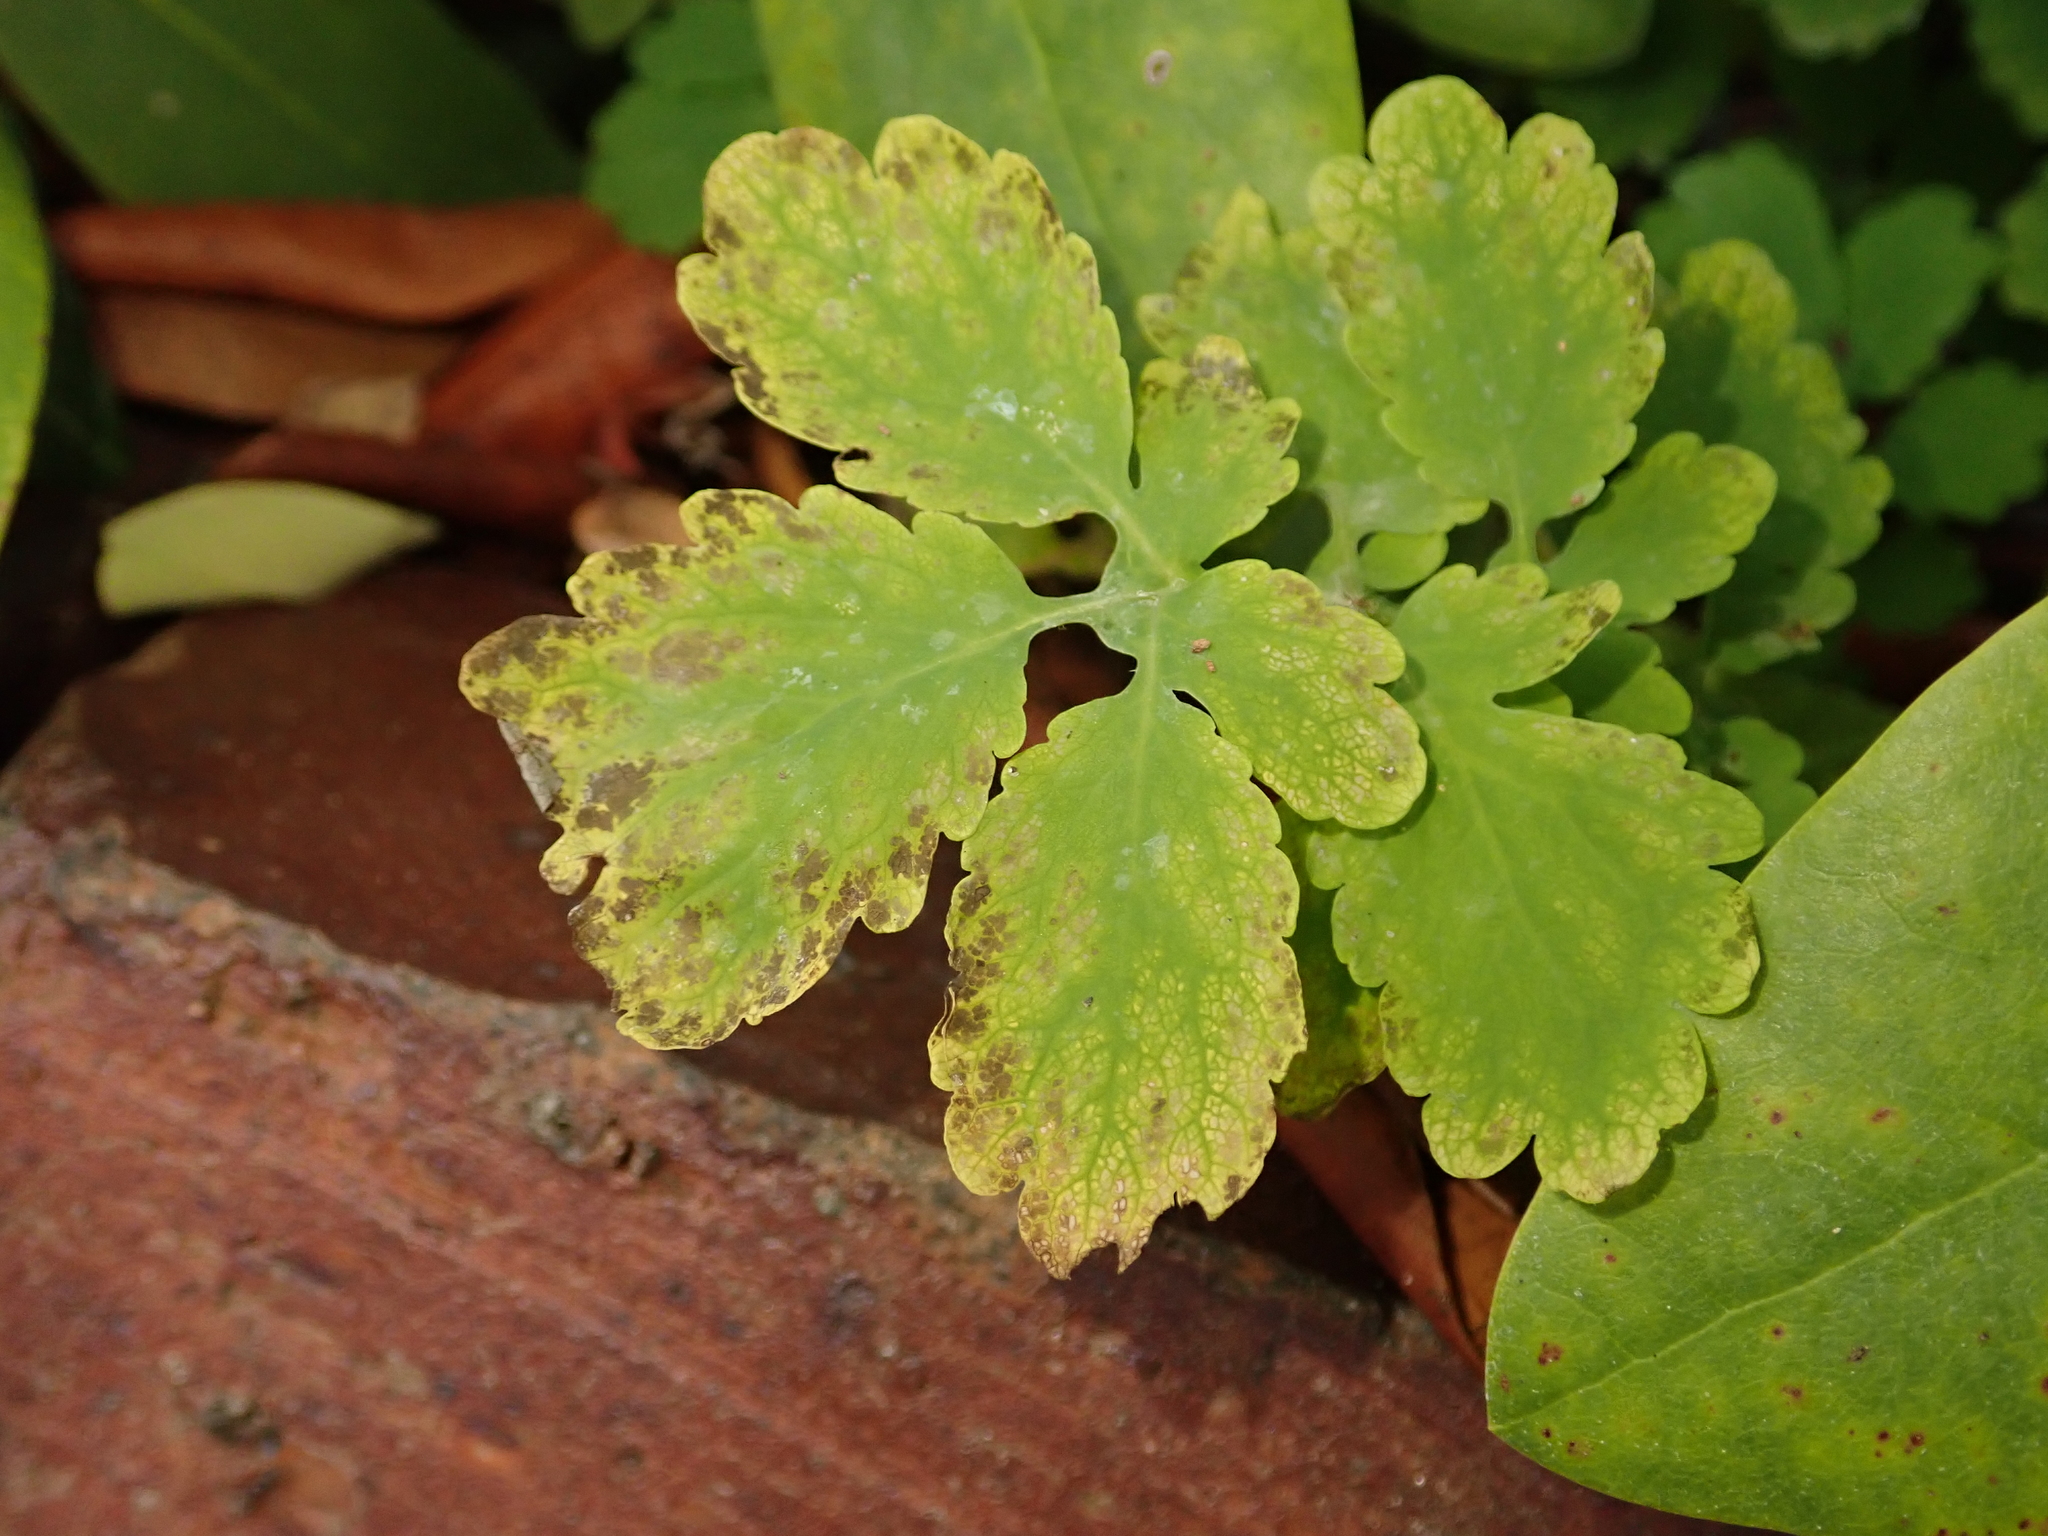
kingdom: Plantae
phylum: Tracheophyta
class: Magnoliopsida
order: Ranunculales
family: Papaveraceae
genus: Chelidonium
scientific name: Chelidonium majus
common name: Greater celandine
